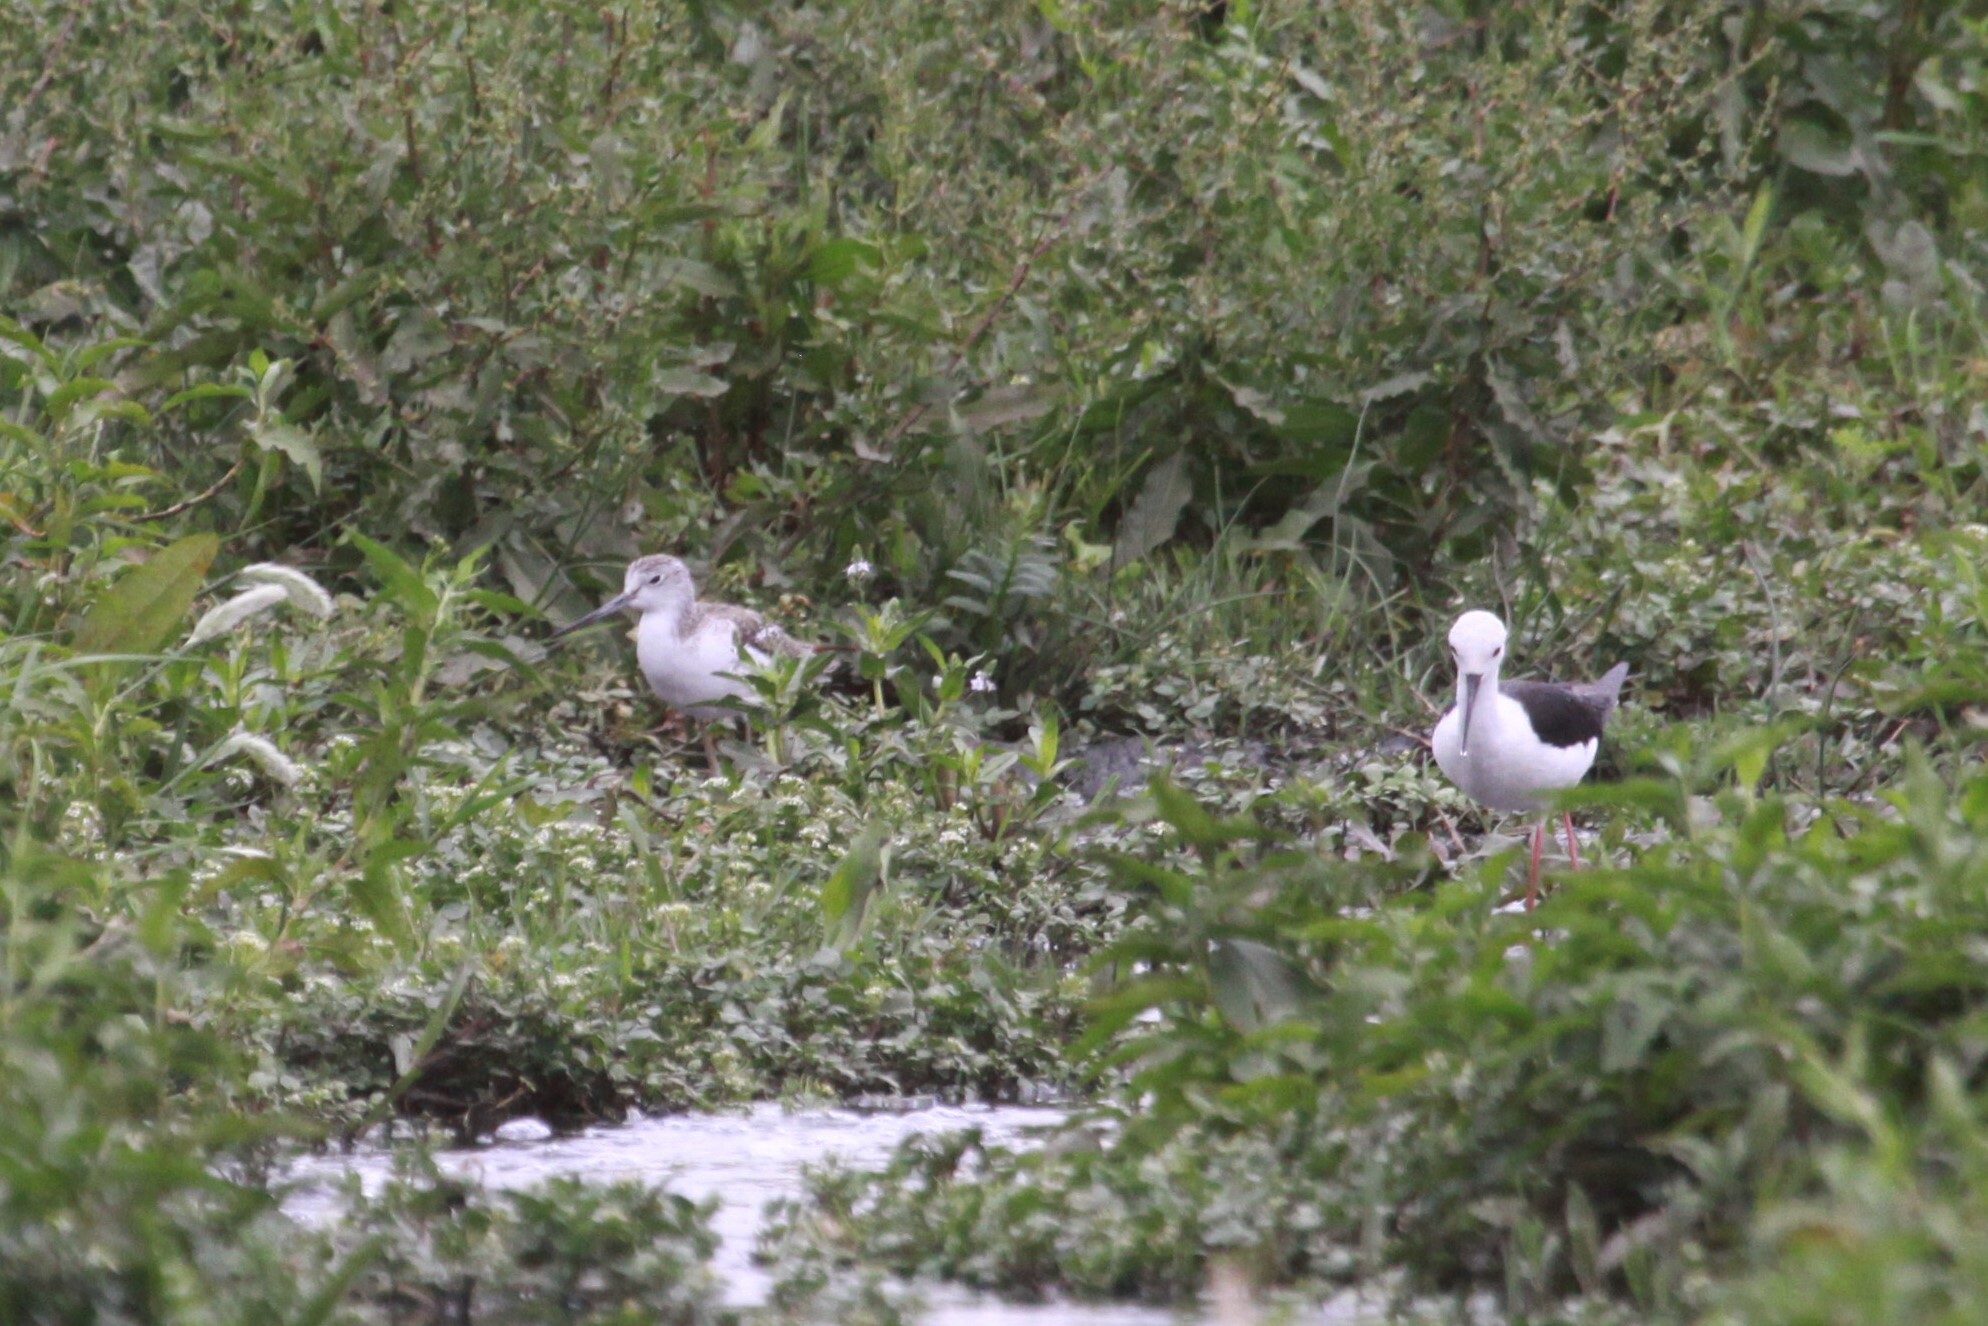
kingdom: Animalia
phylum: Chordata
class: Aves
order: Charadriiformes
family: Recurvirostridae
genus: Himantopus
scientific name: Himantopus himantopus
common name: Black-winged stilt
